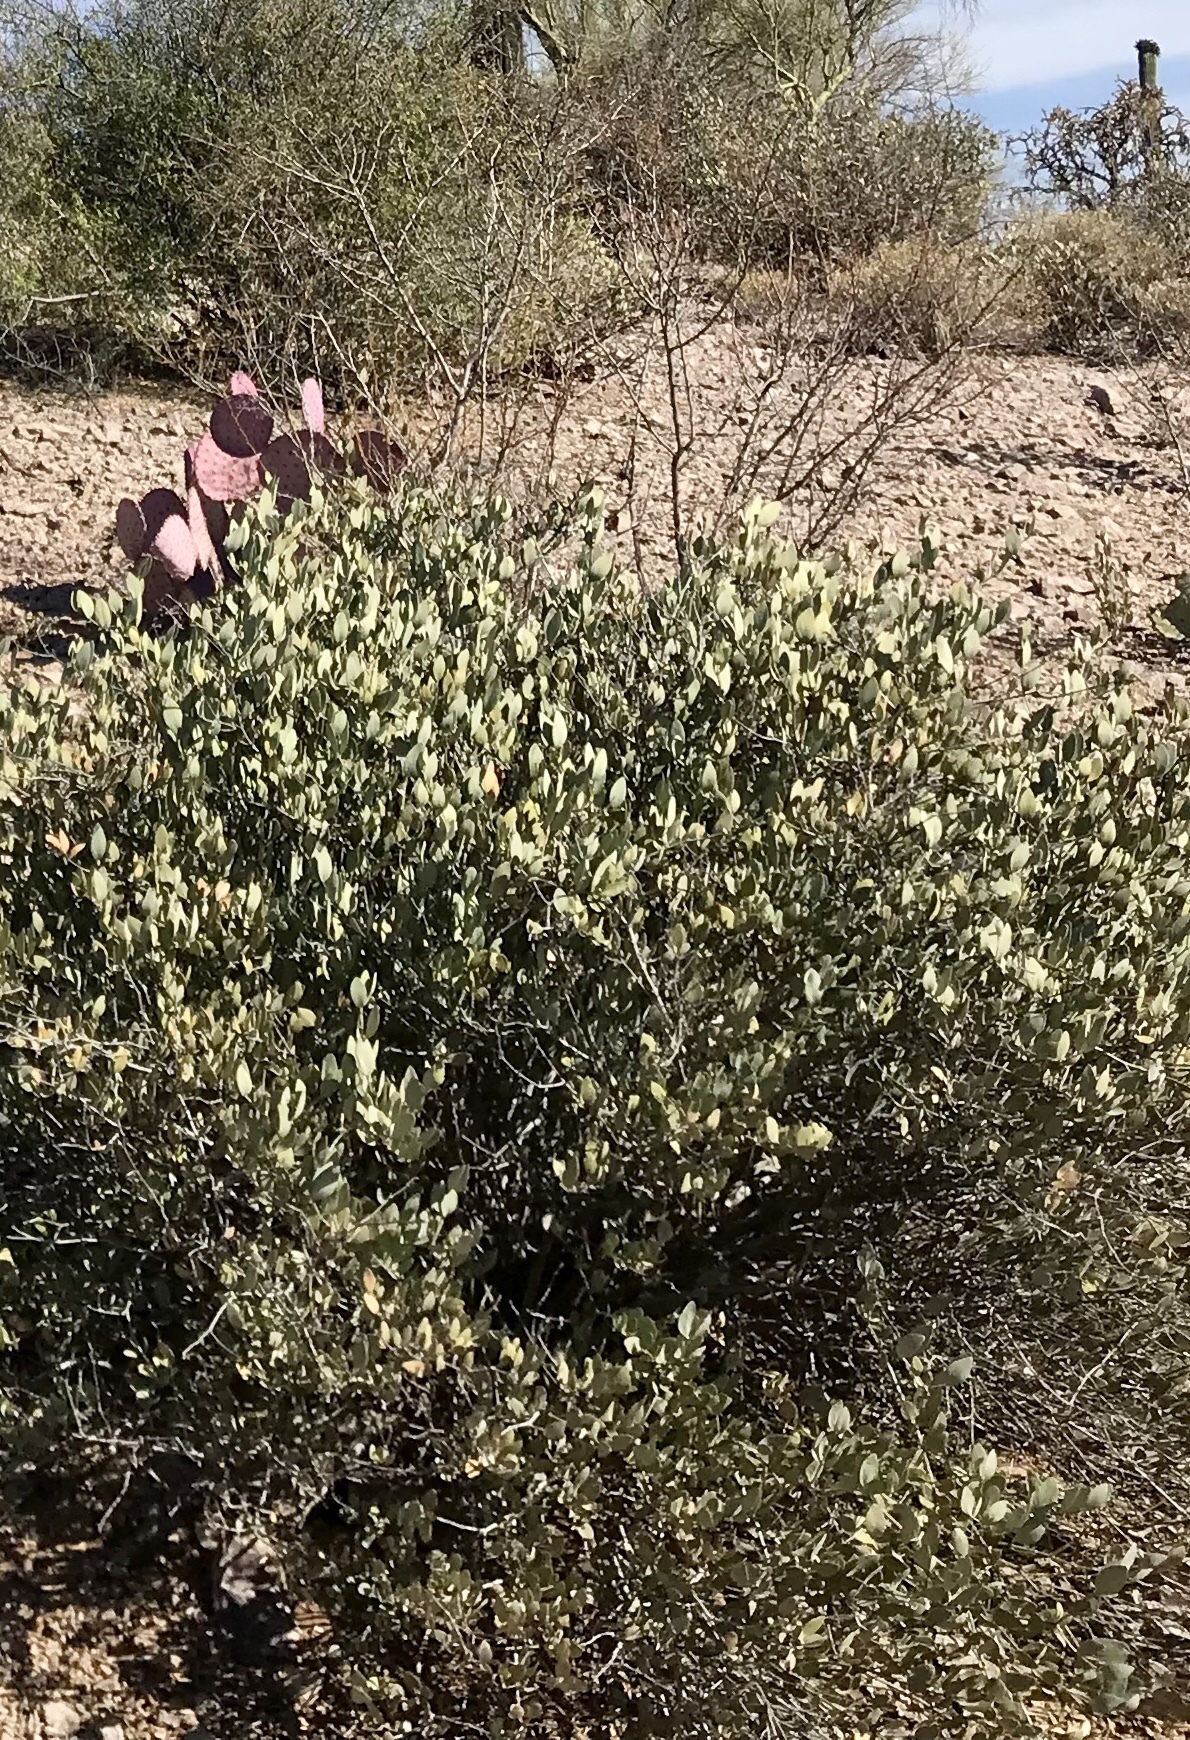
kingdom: Plantae
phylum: Tracheophyta
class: Magnoliopsida
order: Caryophyllales
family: Simmondsiaceae
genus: Simmondsia
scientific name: Simmondsia chinensis
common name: Jojoba
